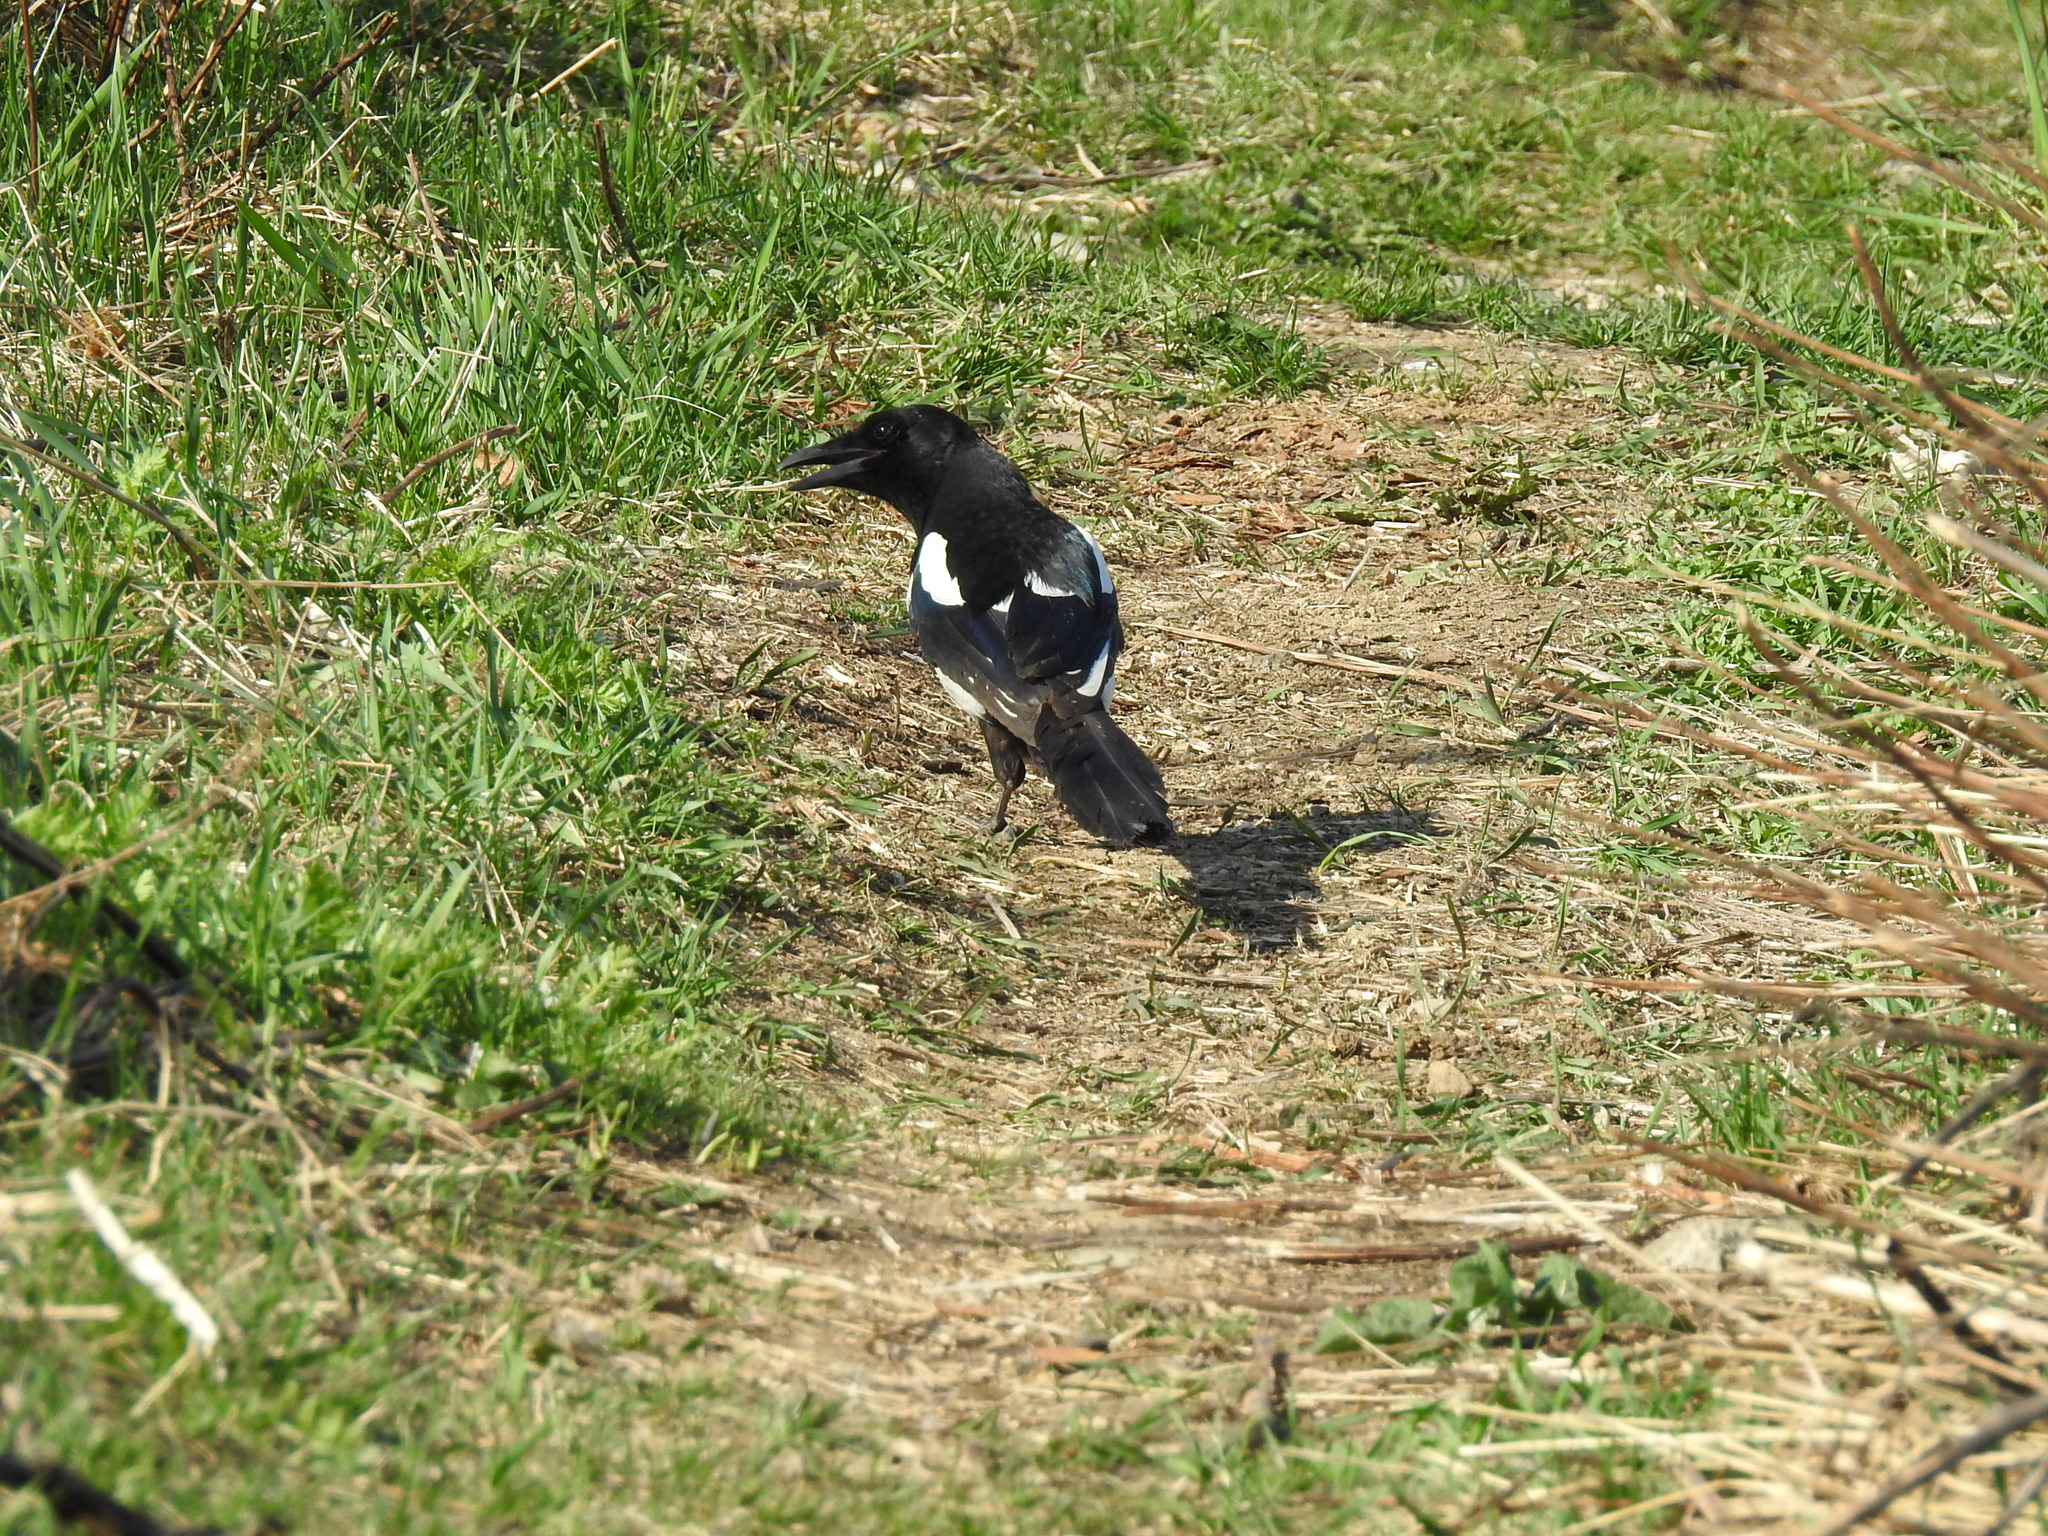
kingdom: Animalia
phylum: Chordata
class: Aves
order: Passeriformes
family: Corvidae
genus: Pica
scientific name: Pica pica
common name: Eurasian magpie
